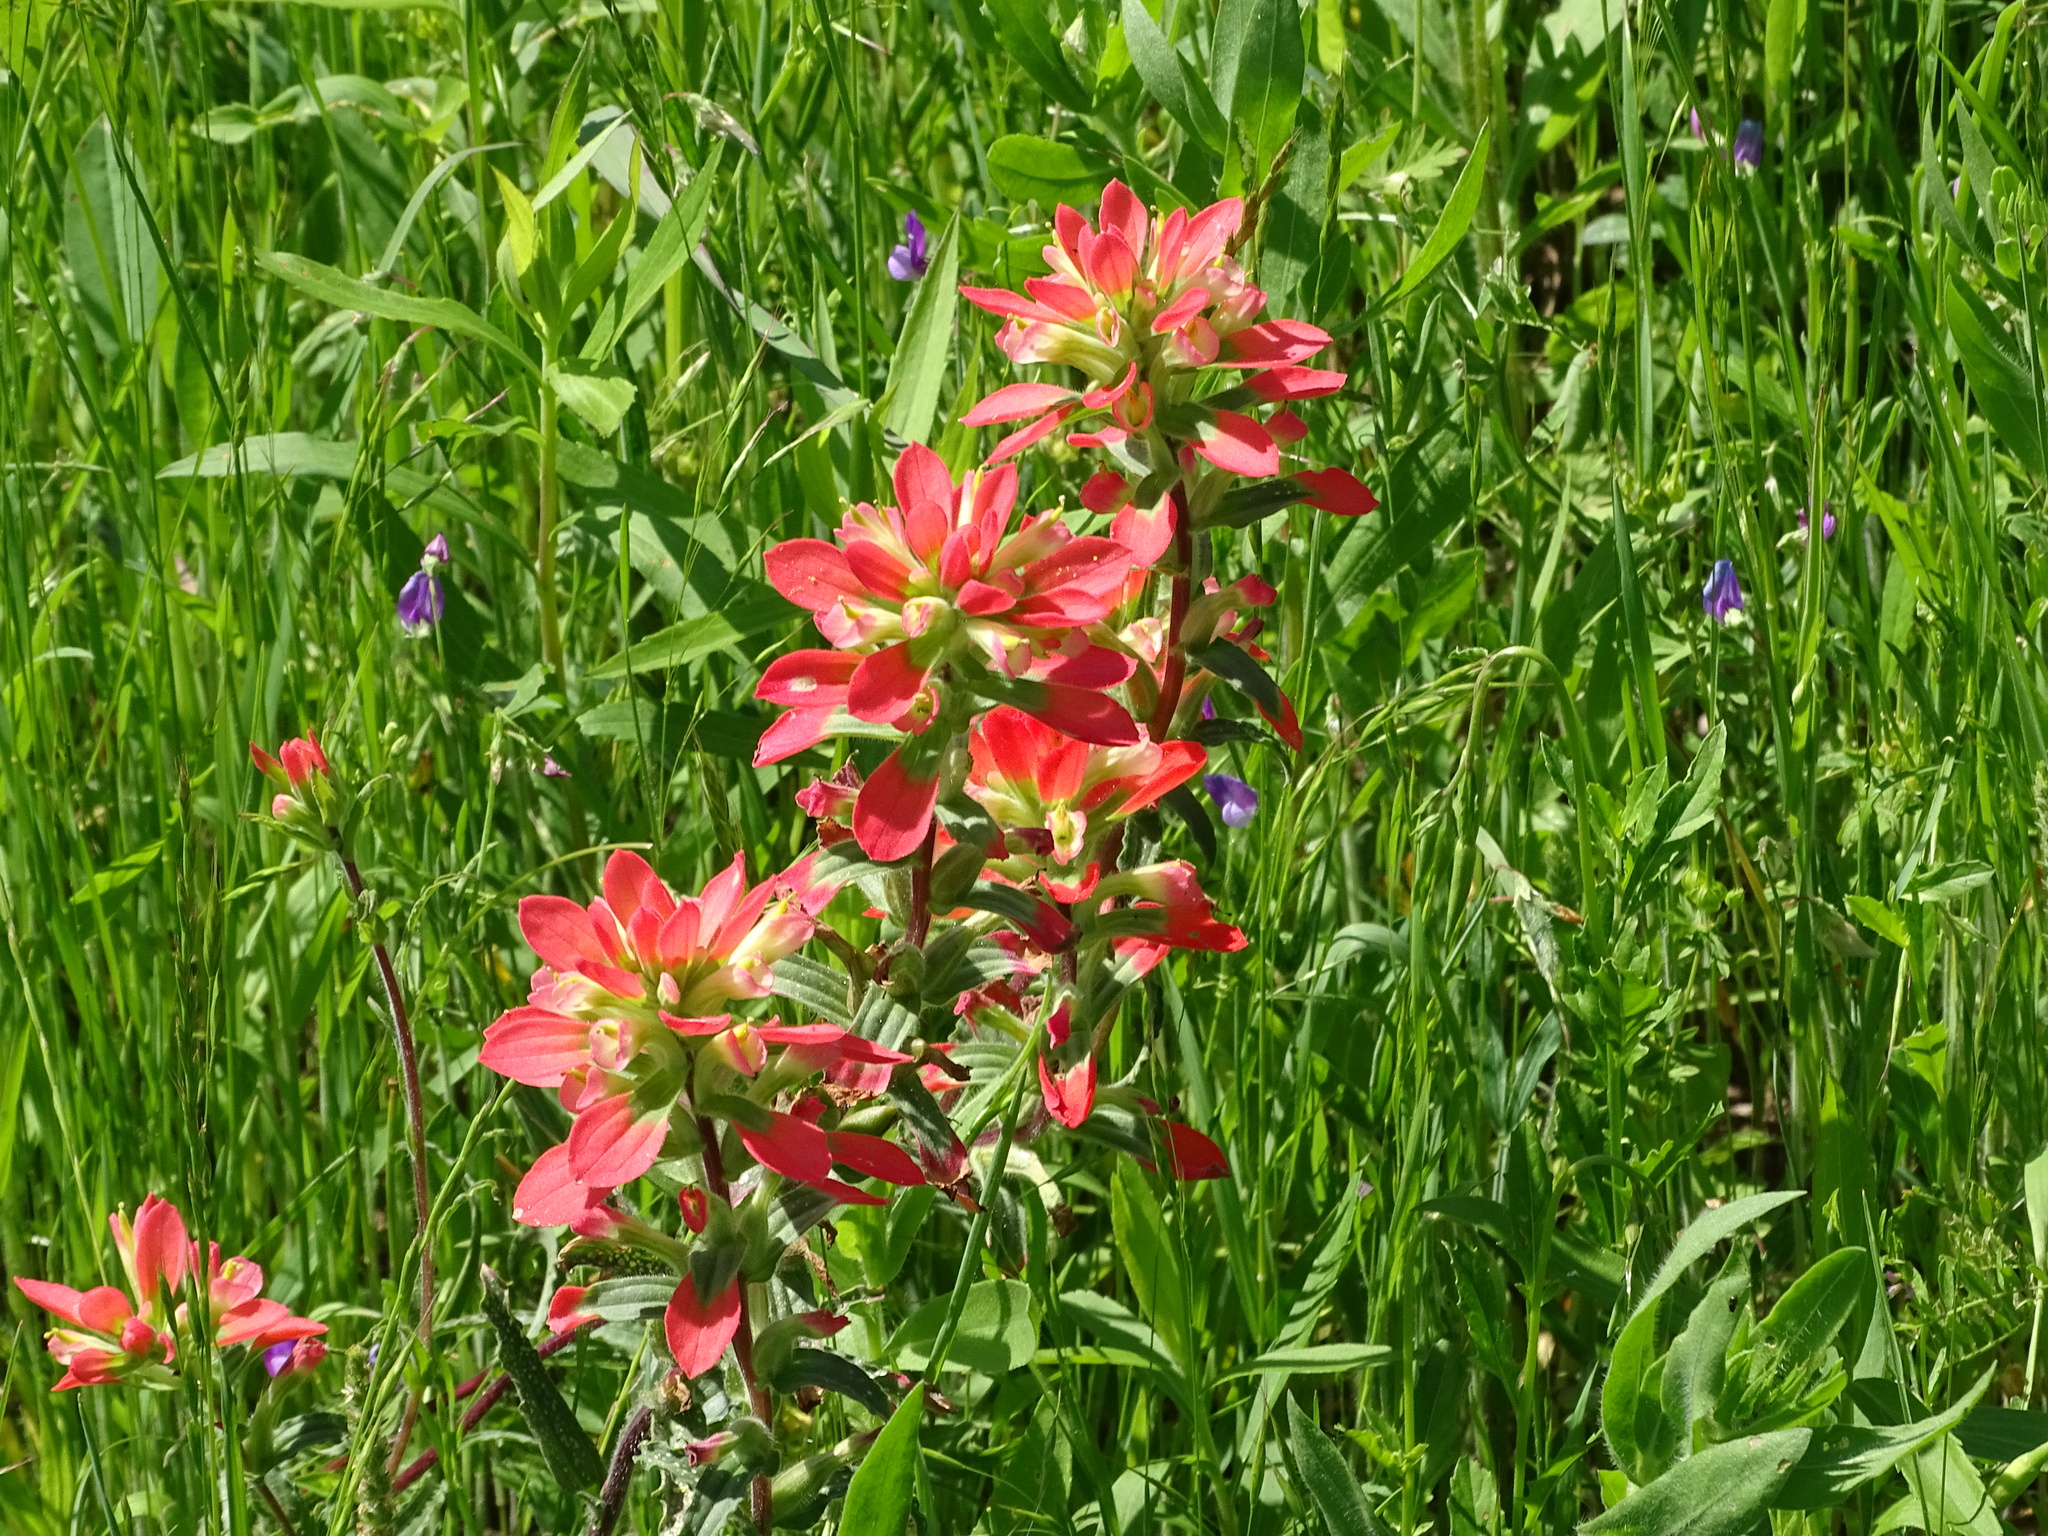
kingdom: Plantae
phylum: Tracheophyta
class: Magnoliopsida
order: Lamiales
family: Orobanchaceae
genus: Castilleja
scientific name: Castilleja indivisa
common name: Texas paintbrush
